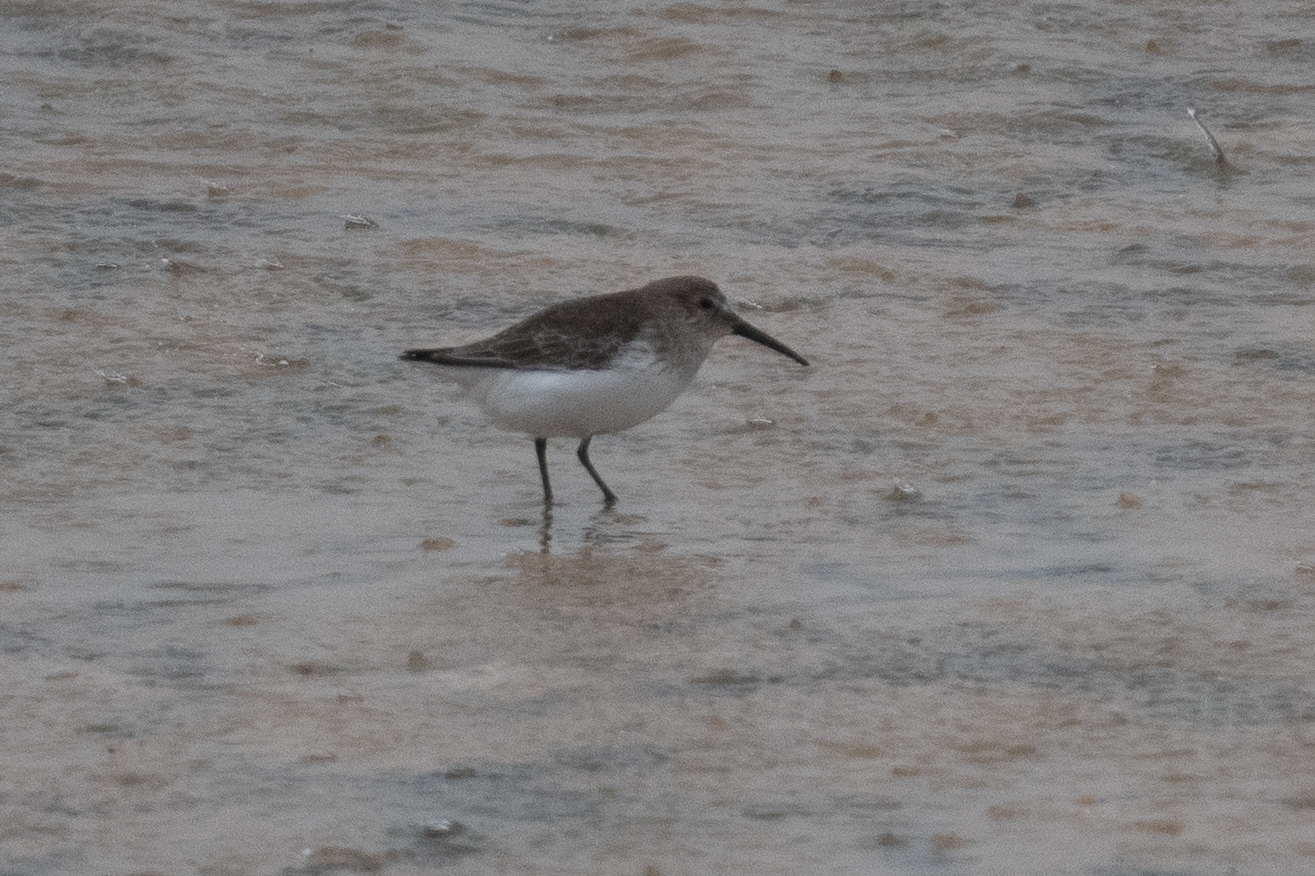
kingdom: Animalia
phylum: Chordata
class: Aves
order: Charadriiformes
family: Scolopacidae
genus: Calidris
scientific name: Calidris alpina
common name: Dunlin
